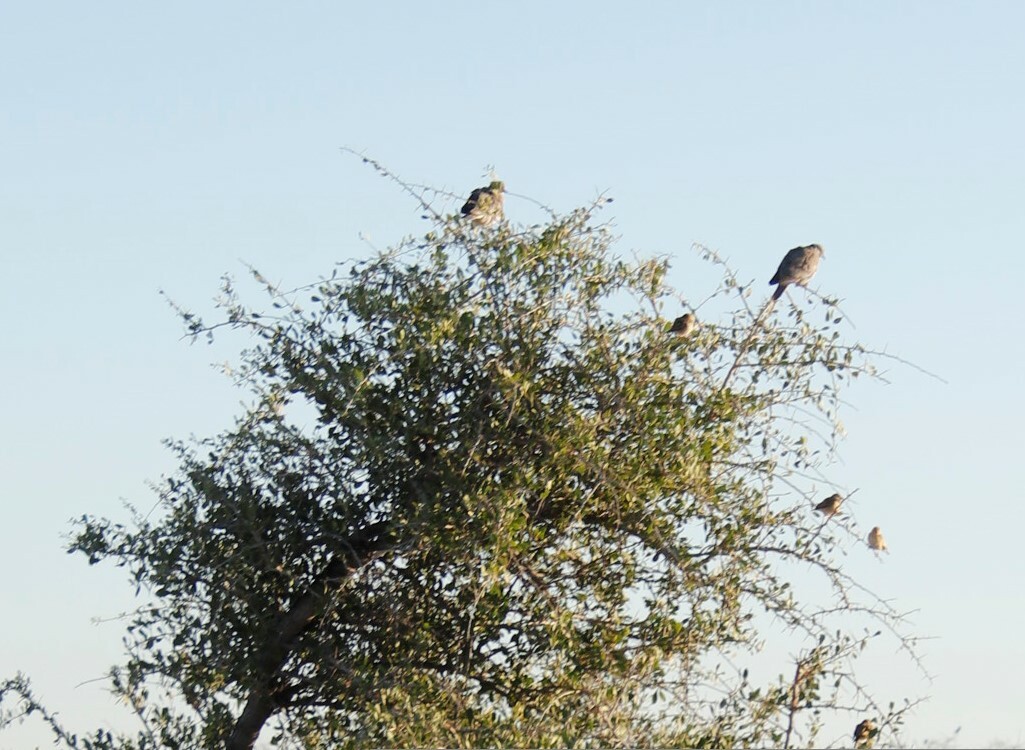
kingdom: Animalia
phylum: Chordata
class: Aves
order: Columbiformes
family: Columbidae
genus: Streptopelia
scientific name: Streptopelia capicola
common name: Ring-necked dove
